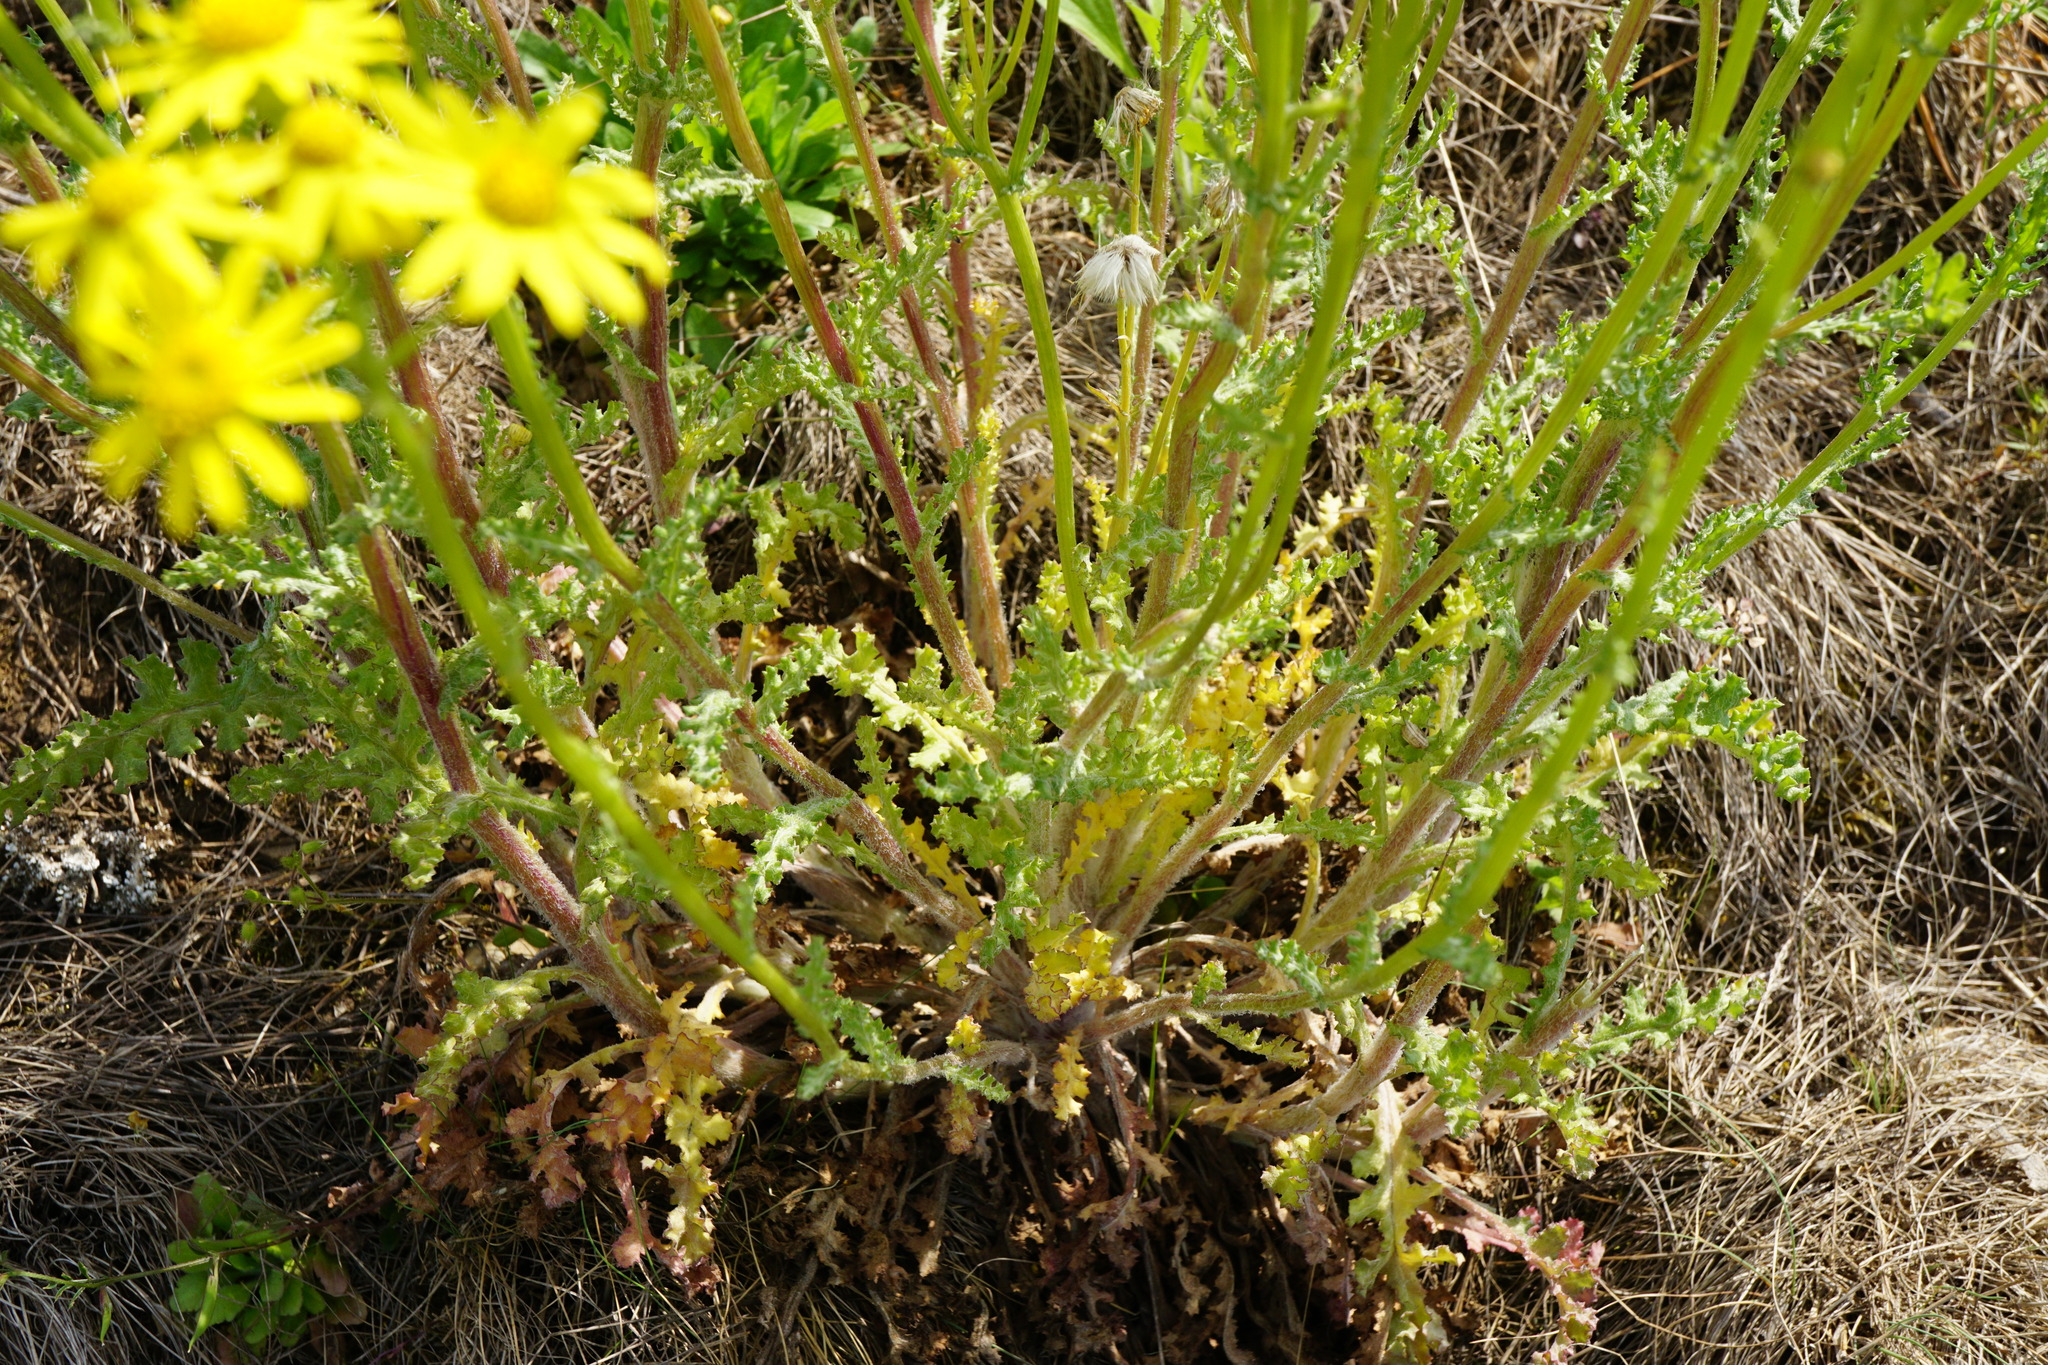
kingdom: Plantae
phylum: Tracheophyta
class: Magnoliopsida
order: Asterales
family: Asteraceae
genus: Senecio
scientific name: Senecio vernalis
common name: Eastern groundsel
